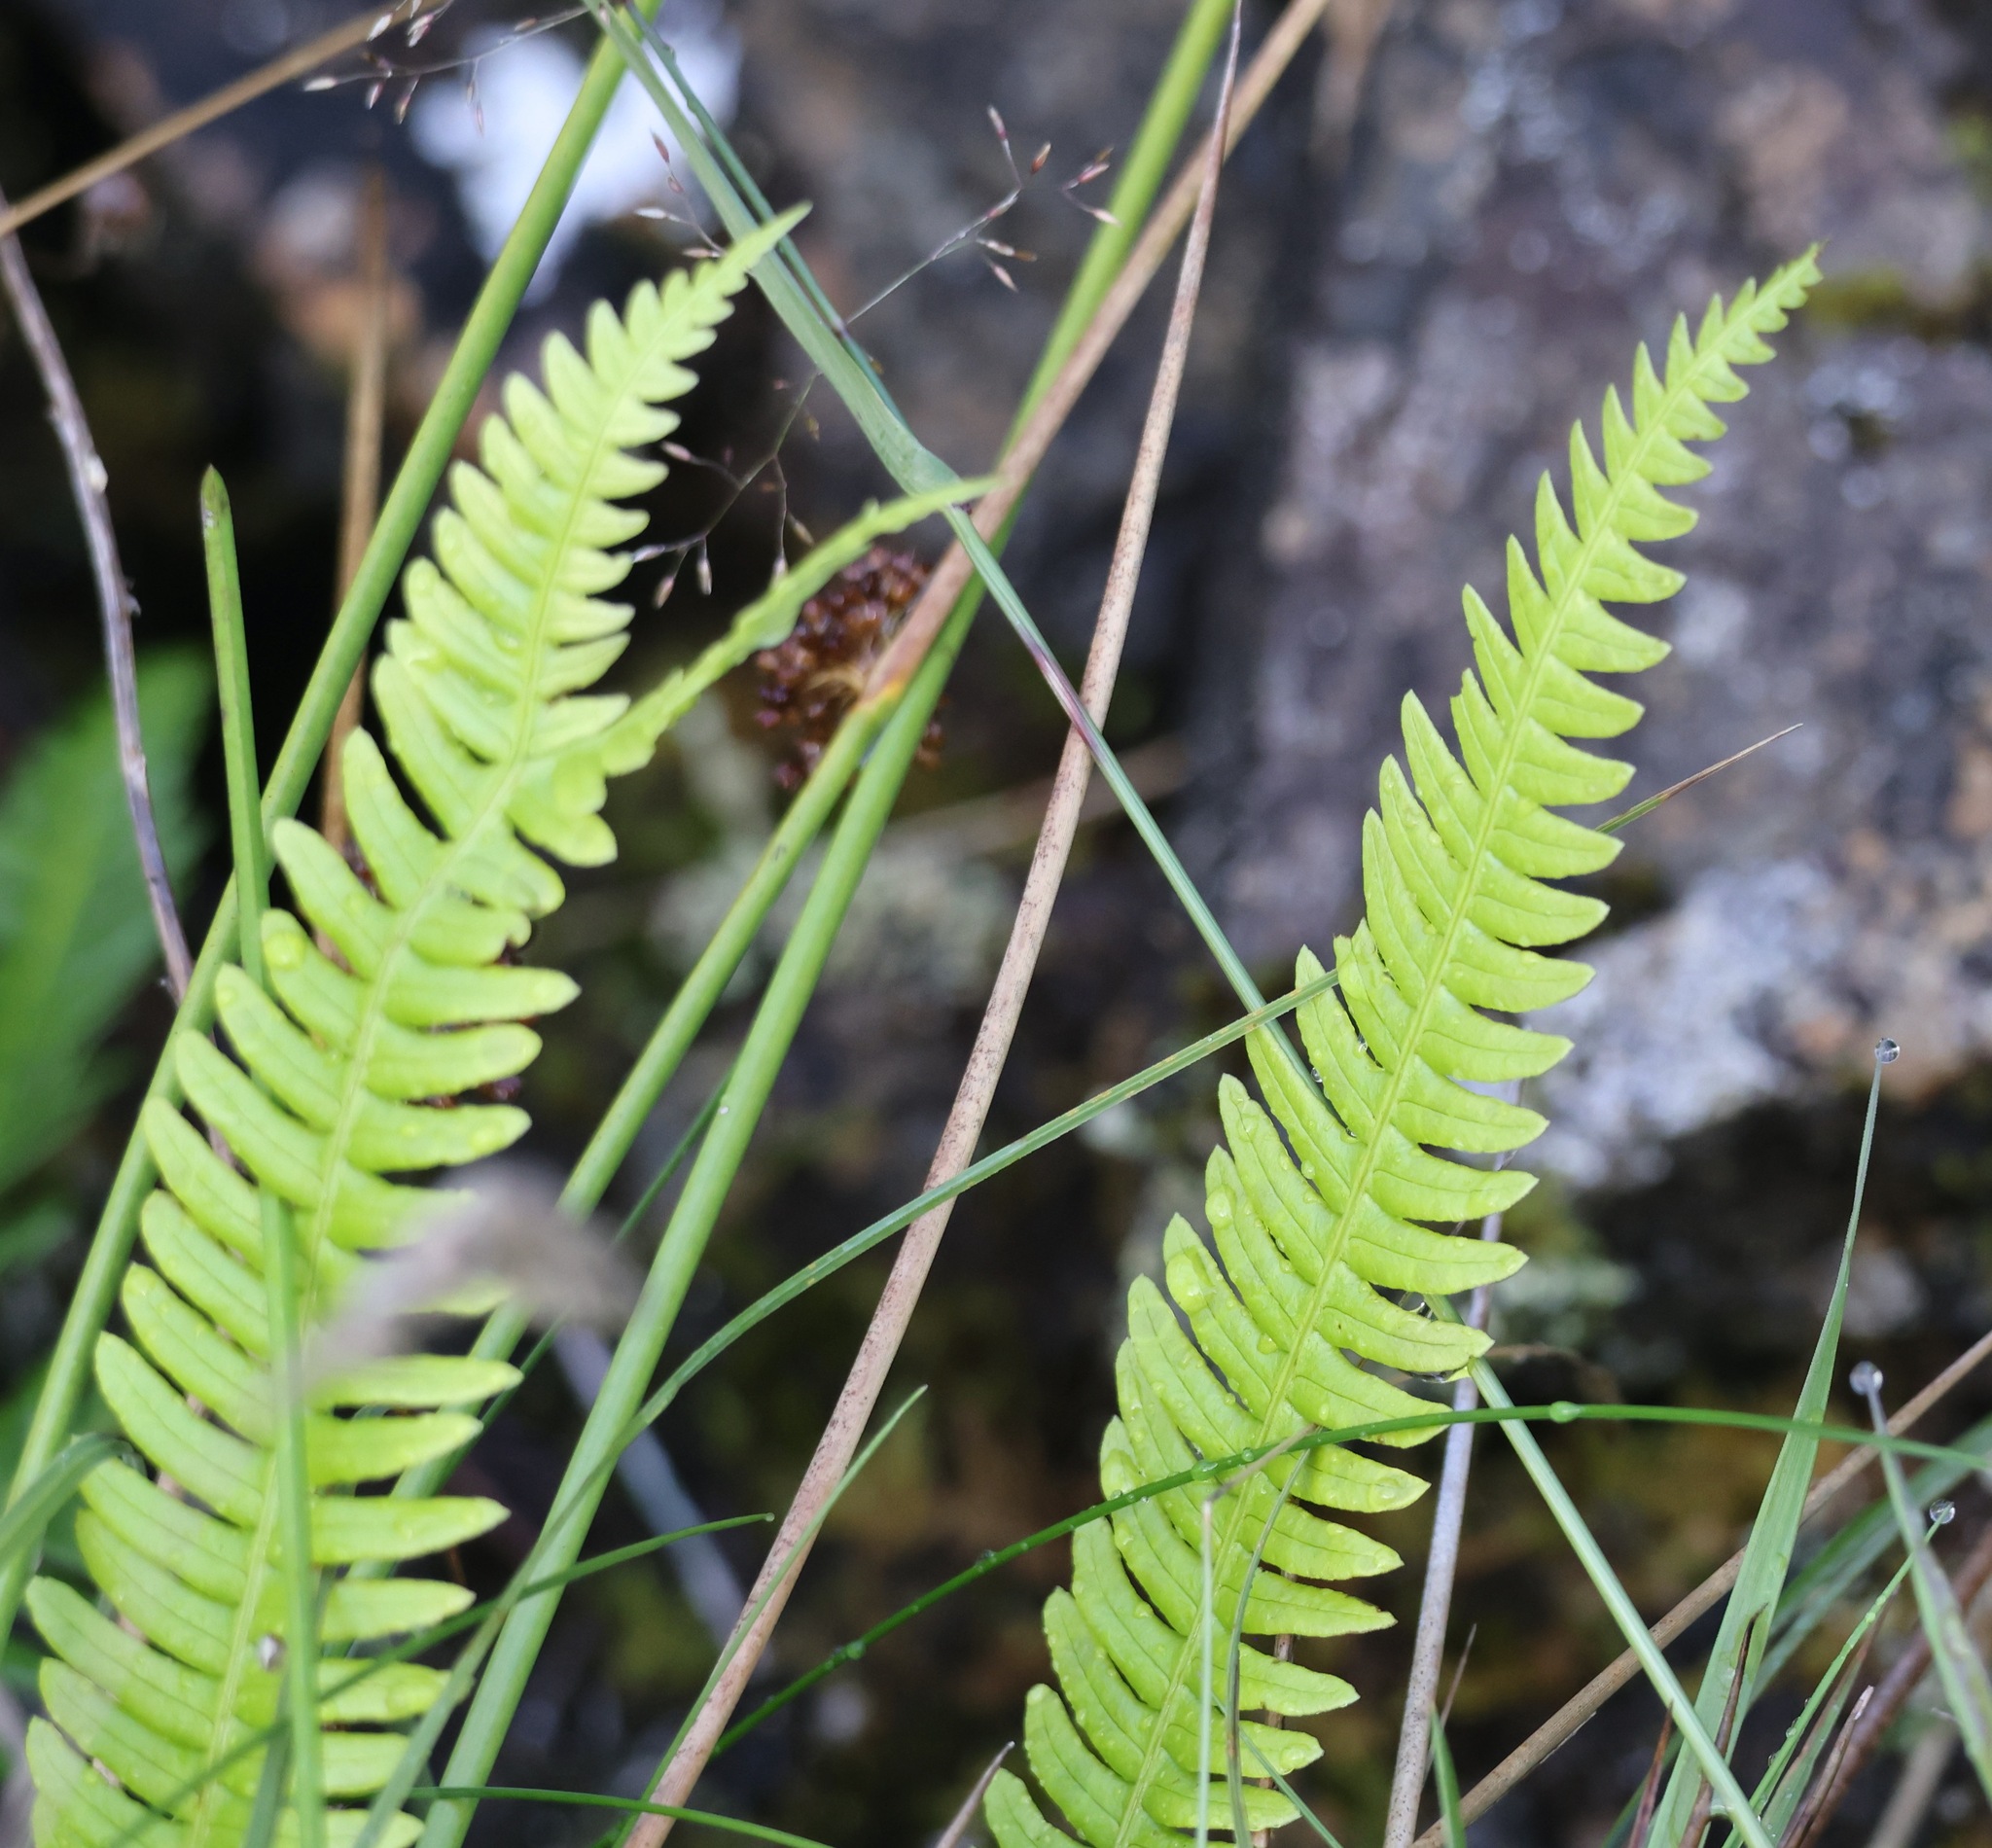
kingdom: Plantae
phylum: Tracheophyta
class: Polypodiopsida
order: Polypodiales
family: Blechnaceae
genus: Struthiopteris
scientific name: Struthiopteris spicant
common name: Deer fern
